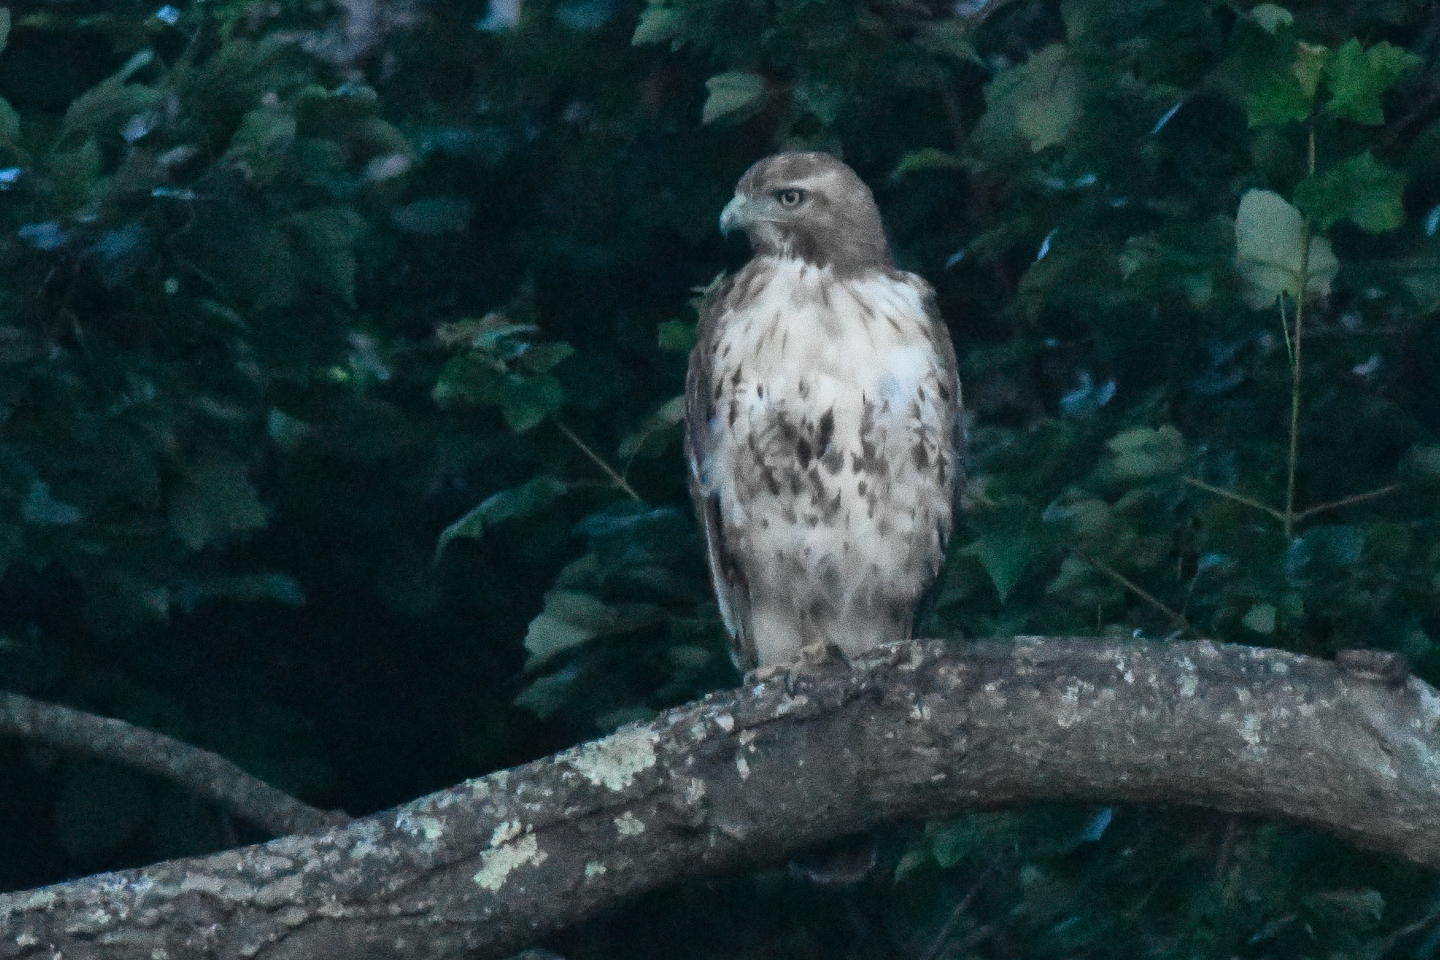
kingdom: Animalia
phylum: Chordata
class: Aves
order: Accipitriformes
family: Accipitridae
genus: Buteo
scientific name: Buteo jamaicensis
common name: Red-tailed hawk
